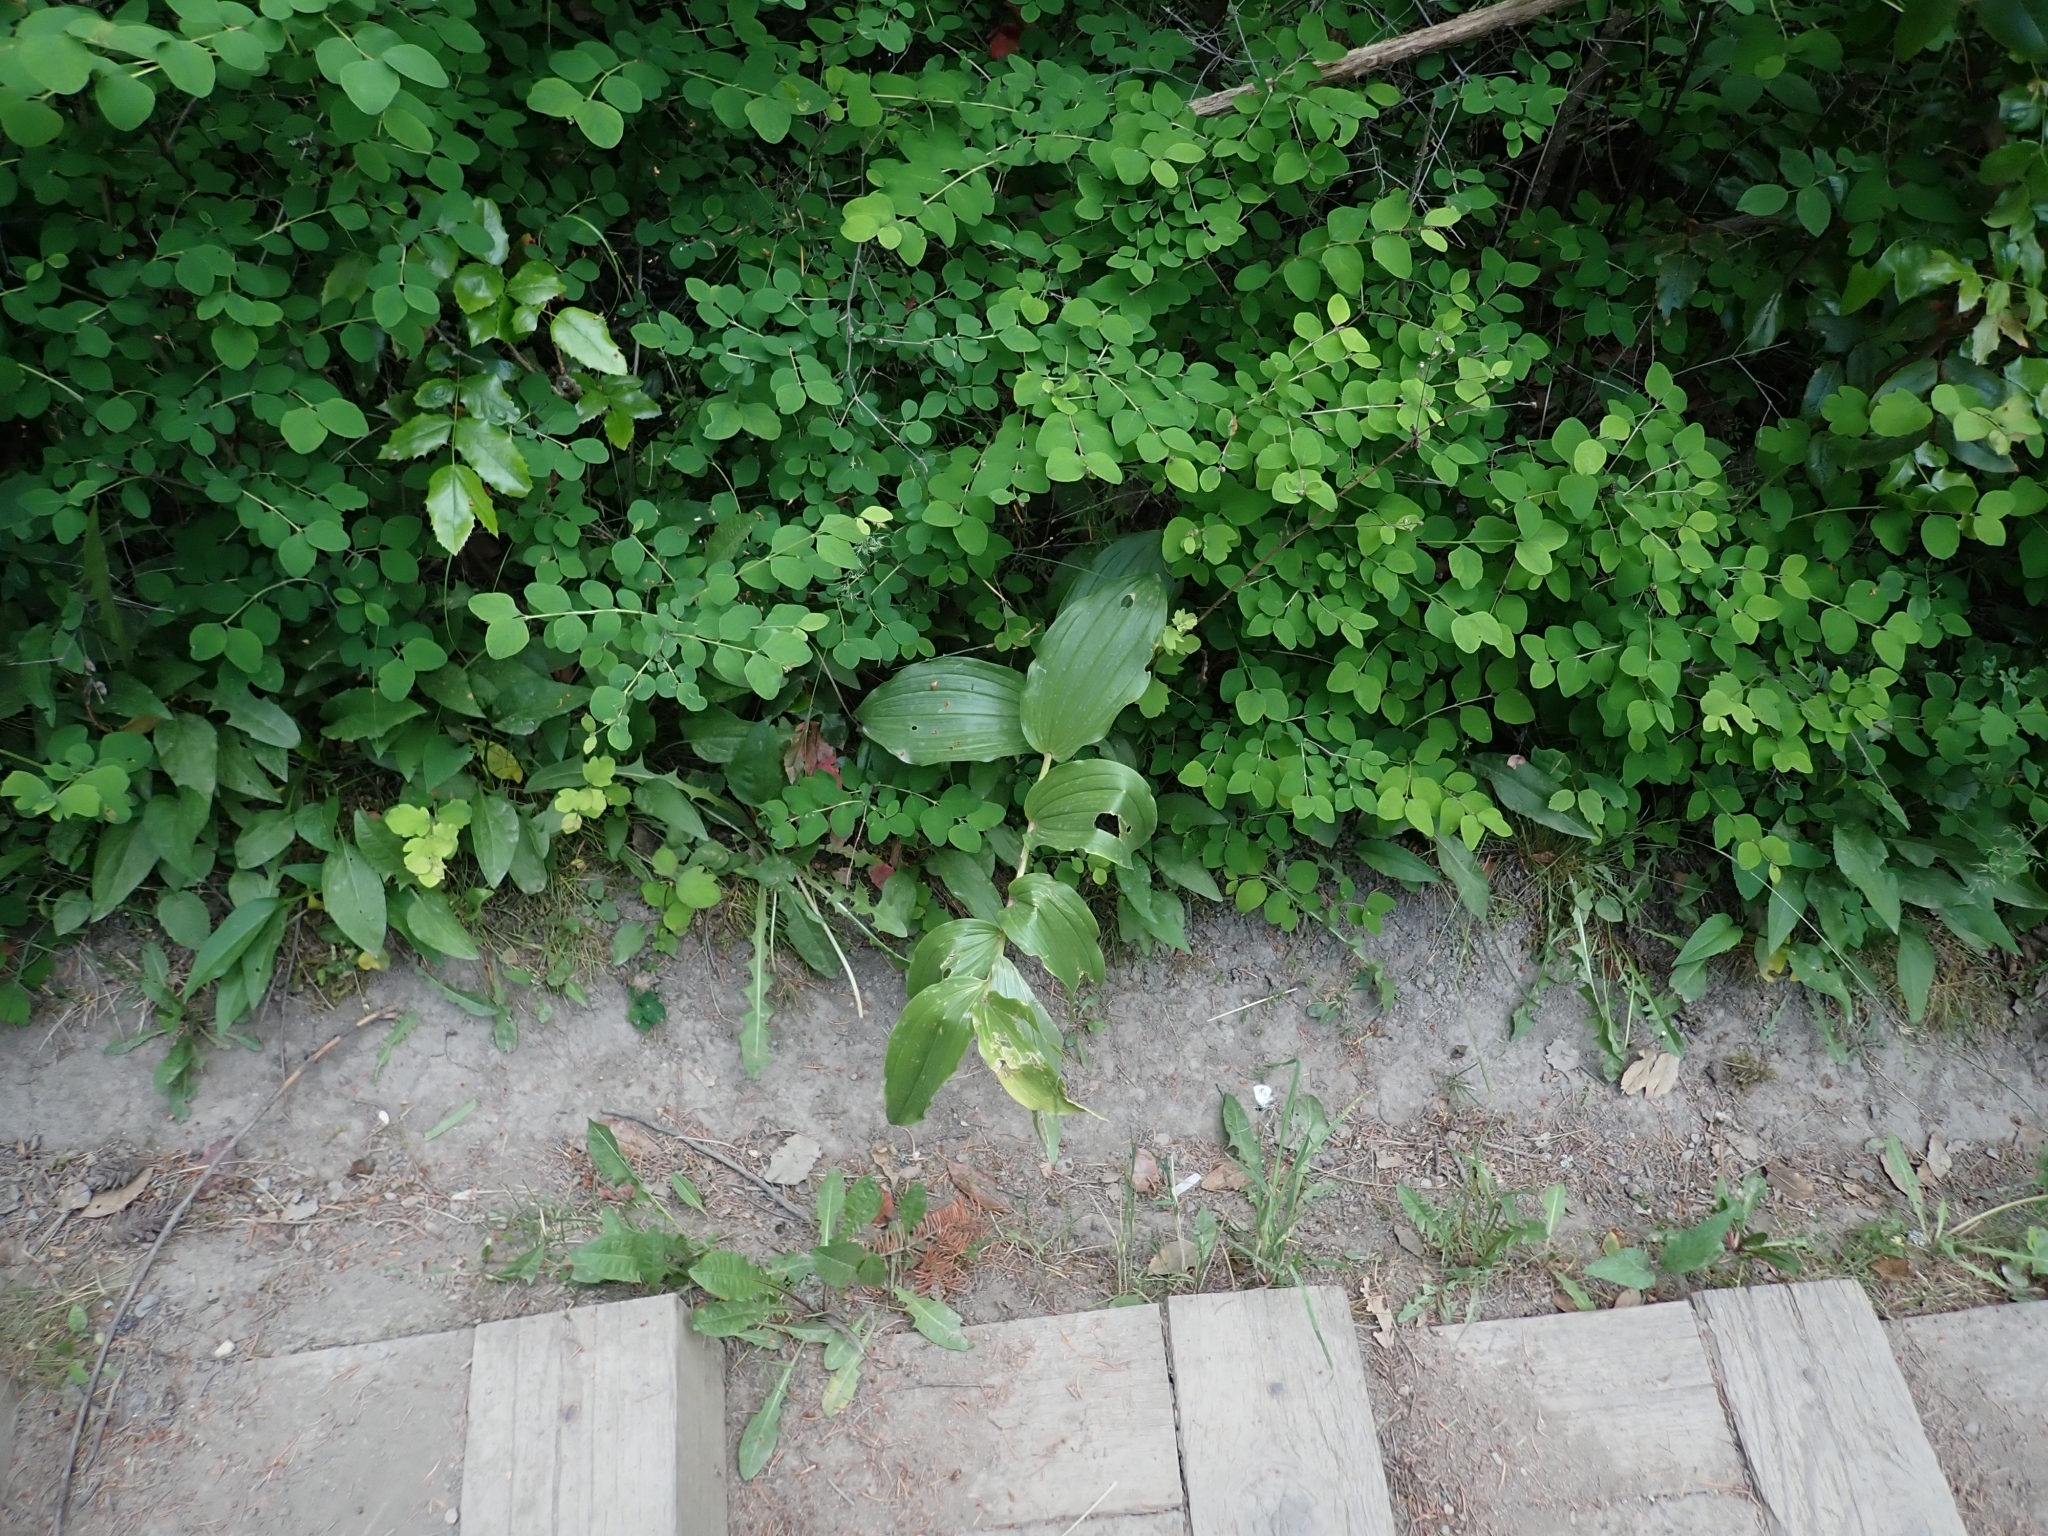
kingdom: Plantae
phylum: Tracheophyta
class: Liliopsida
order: Asparagales
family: Asparagaceae
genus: Maianthemum
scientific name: Maianthemum racemosum
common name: False spikenard
